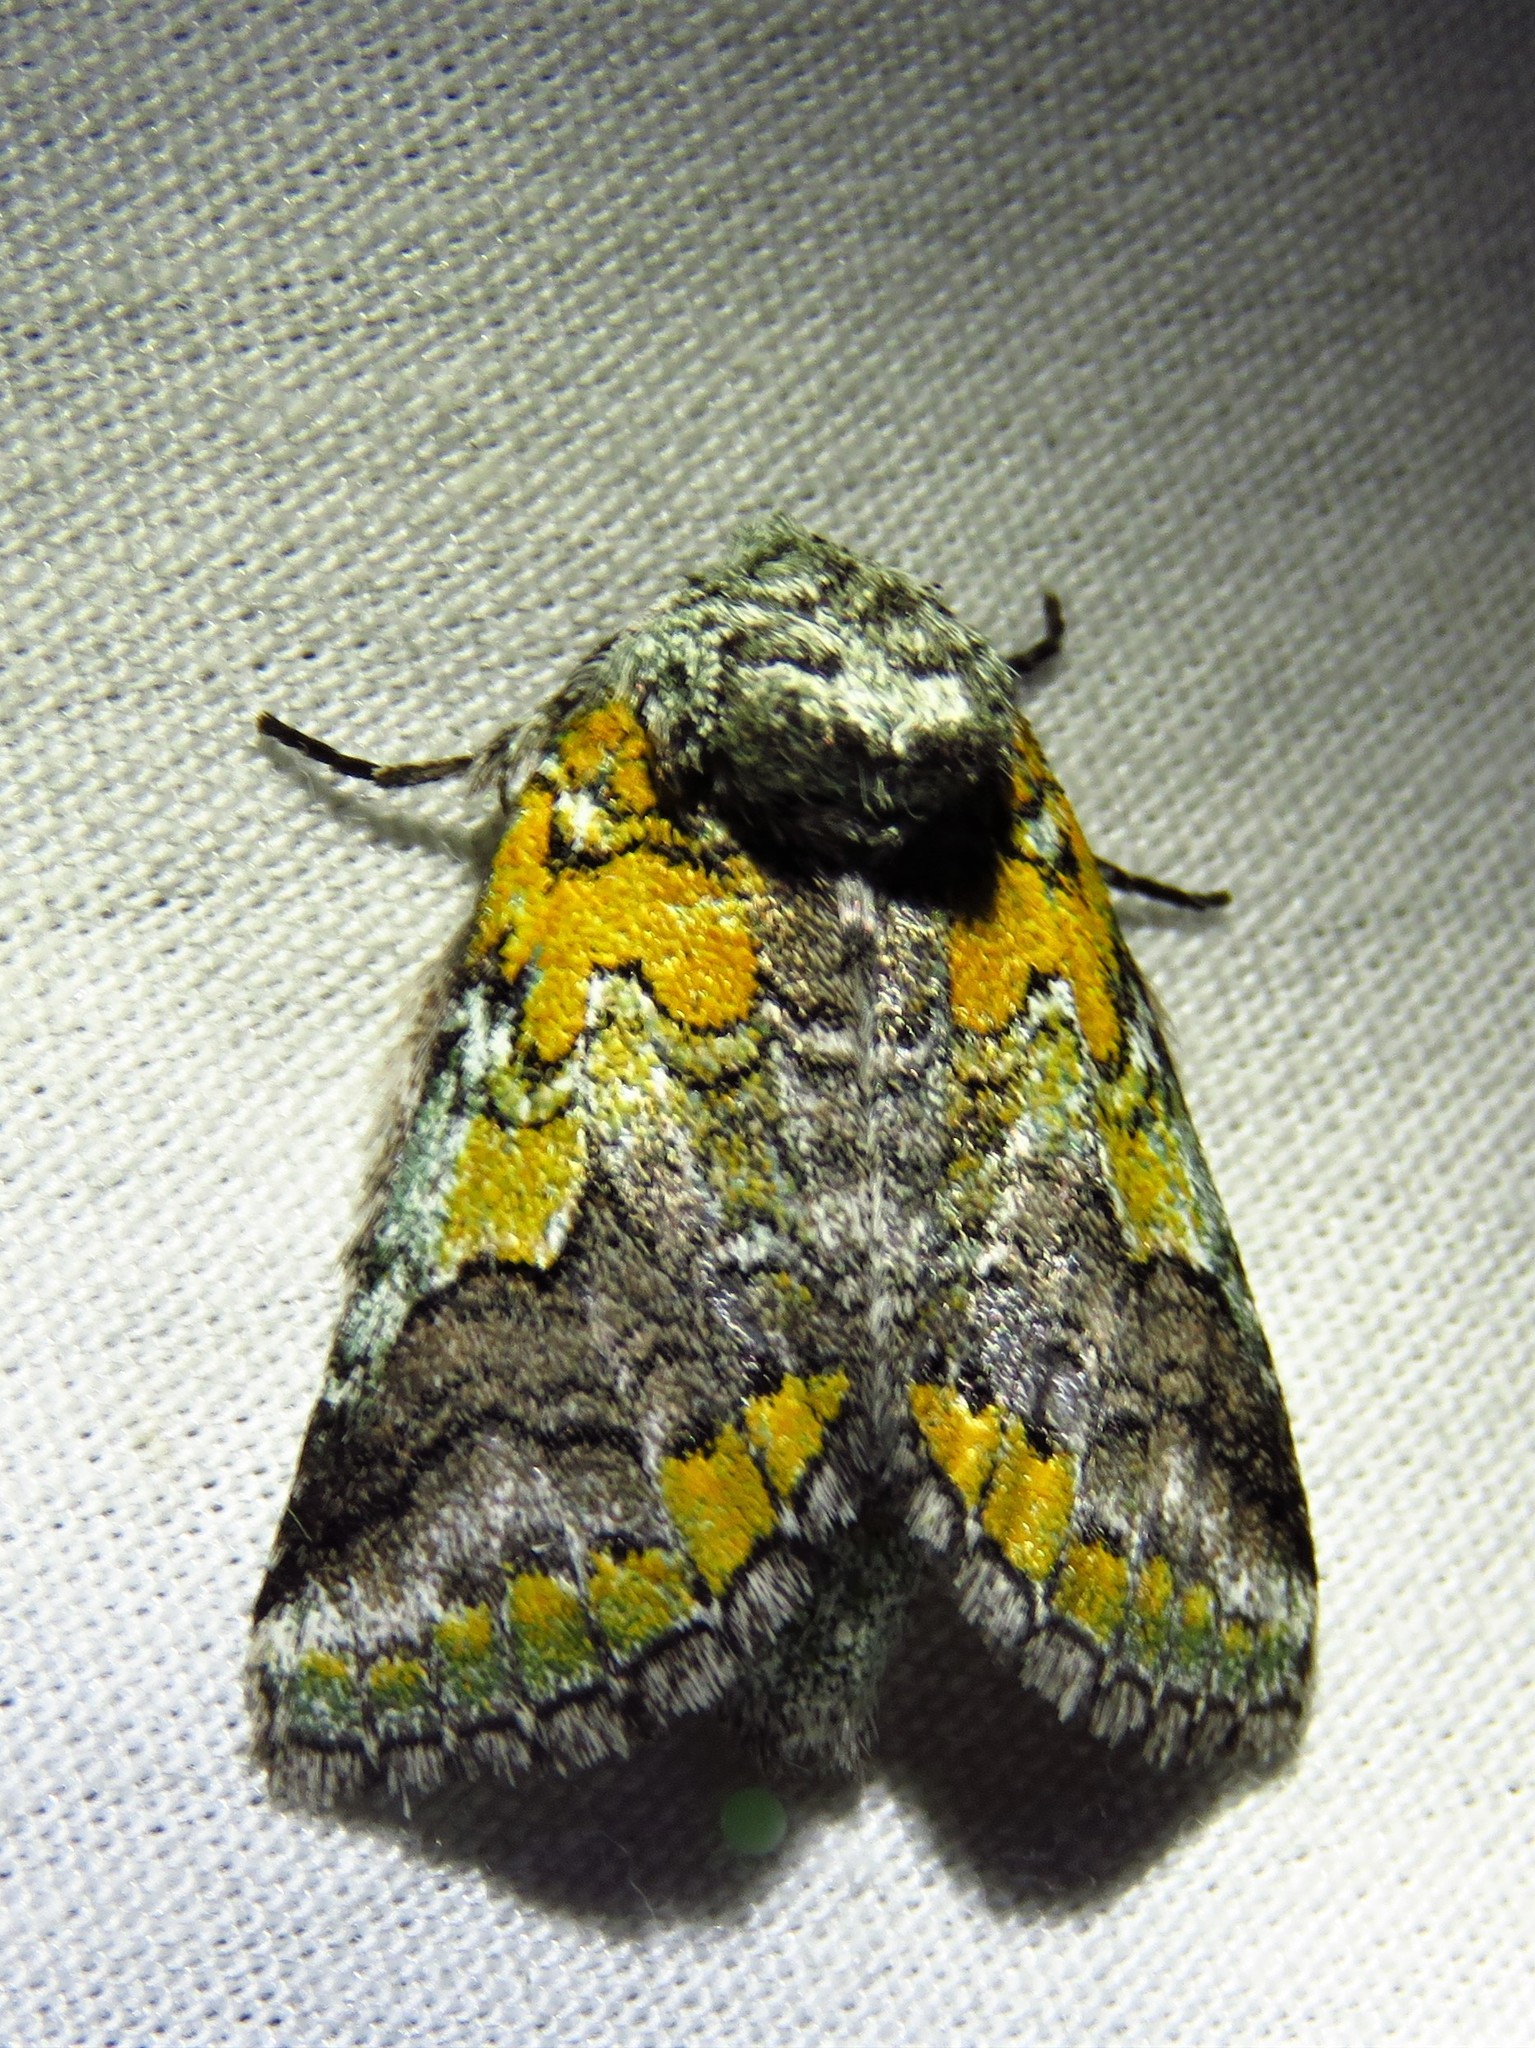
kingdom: Animalia
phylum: Arthropoda
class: Insecta
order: Lepidoptera
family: Notodontidae
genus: Litodonta
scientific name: Litodonta hydromeli
